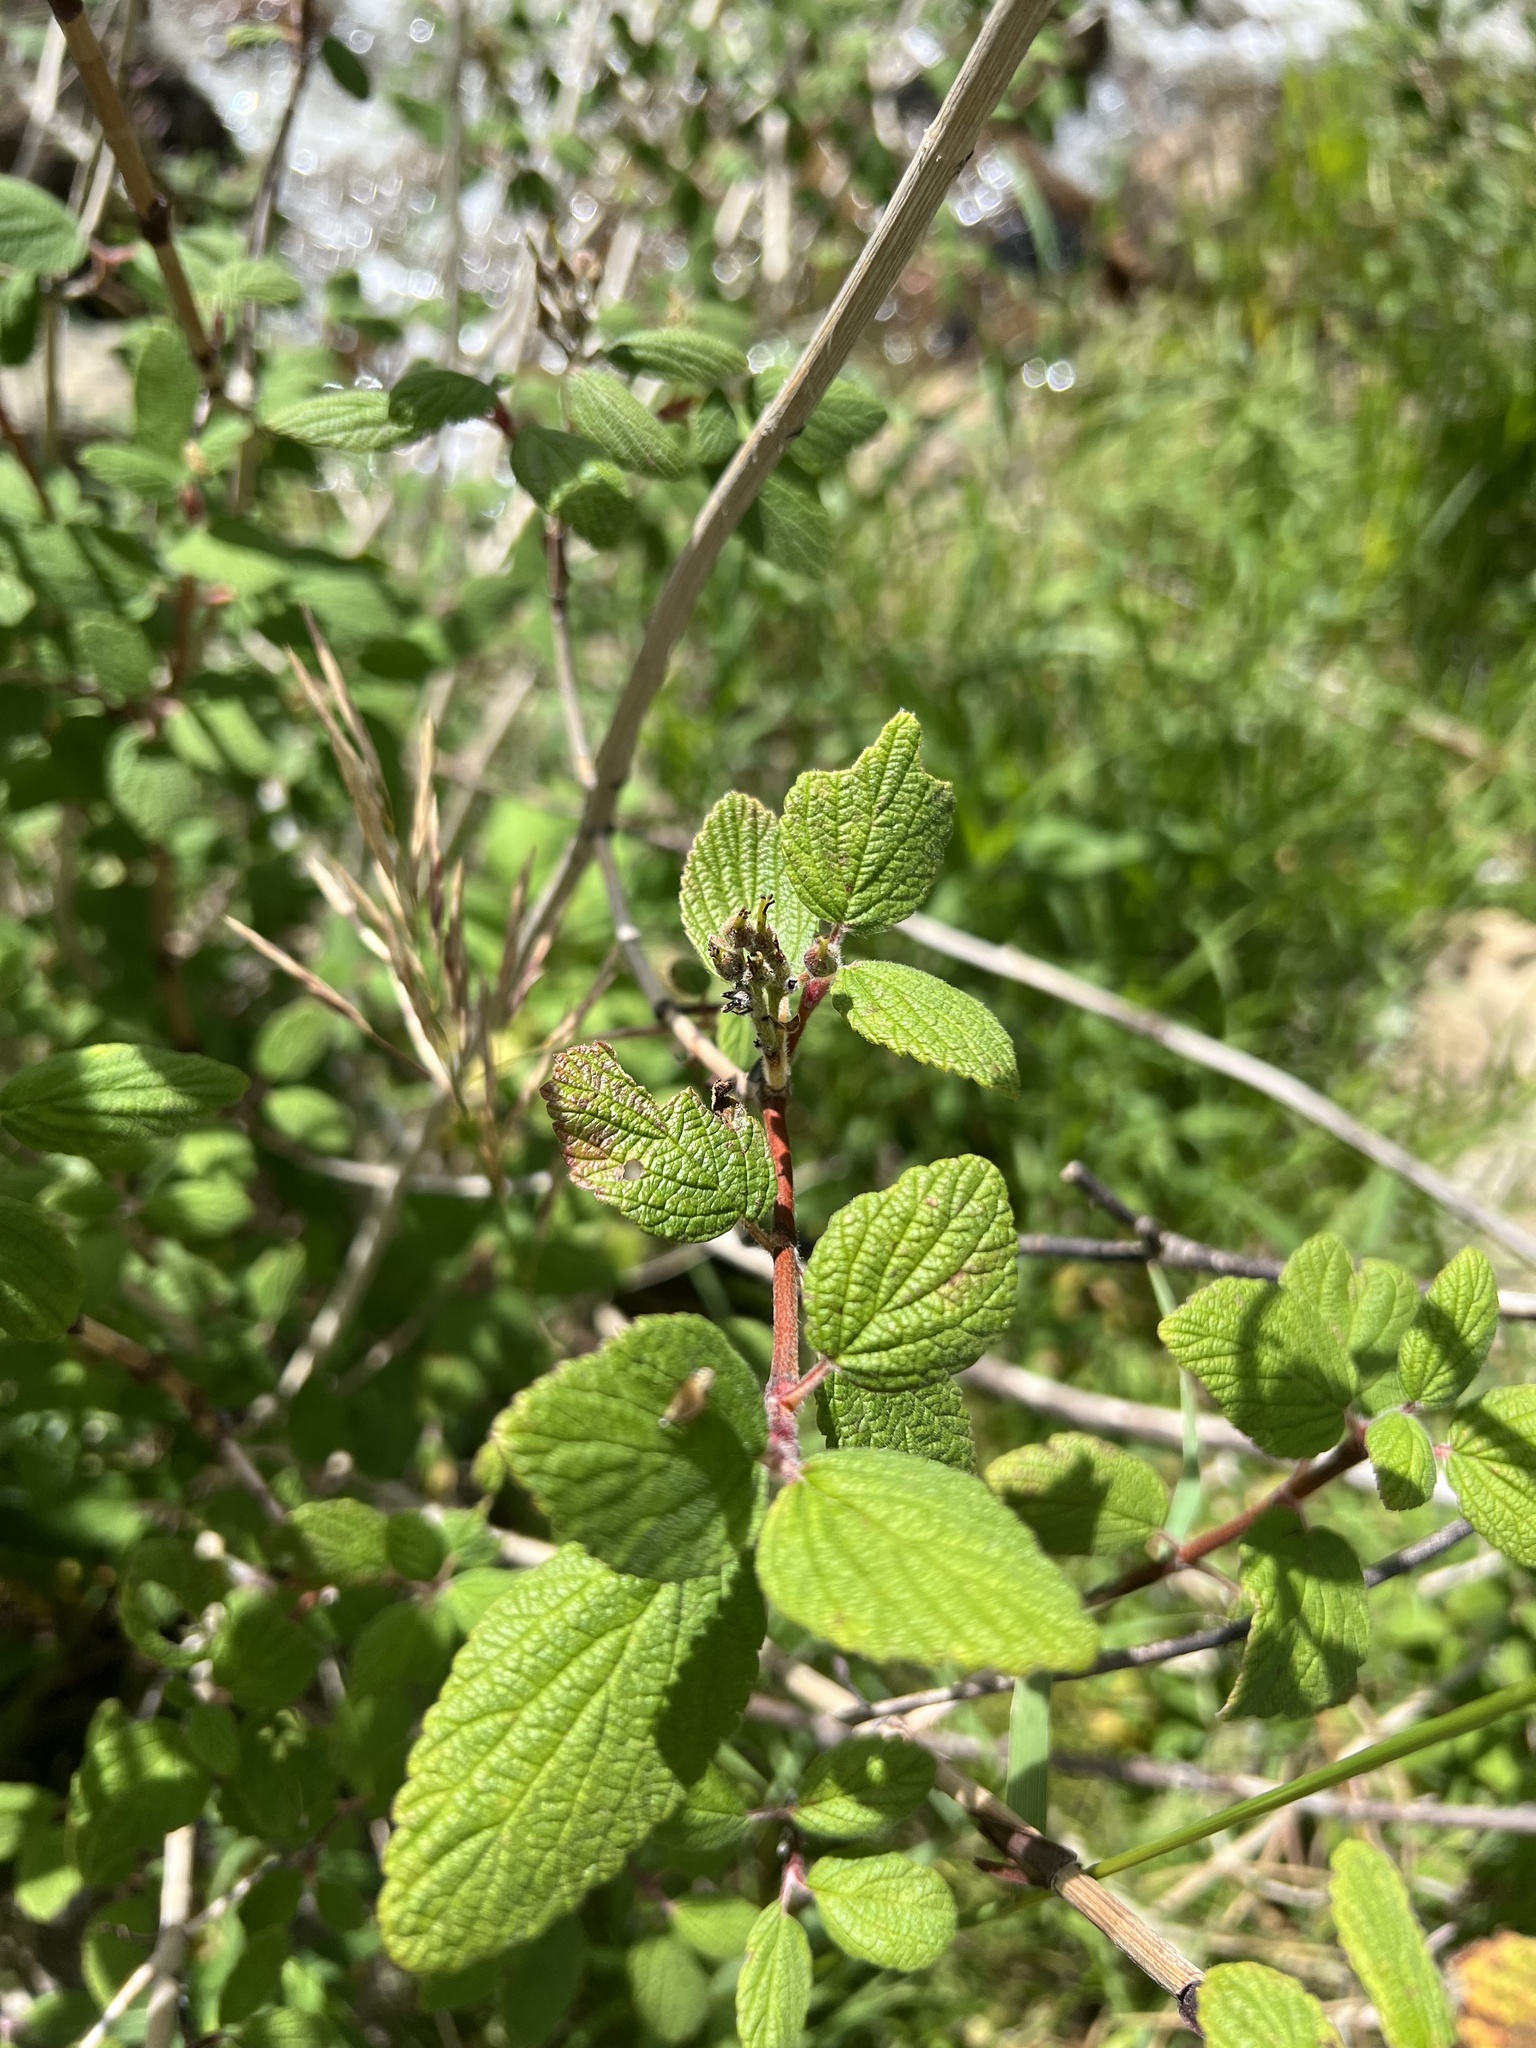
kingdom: Plantae
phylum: Tracheophyta
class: Magnoliopsida
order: Cornales
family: Hydrangeaceae
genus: Jamesia
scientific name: Jamesia americana
